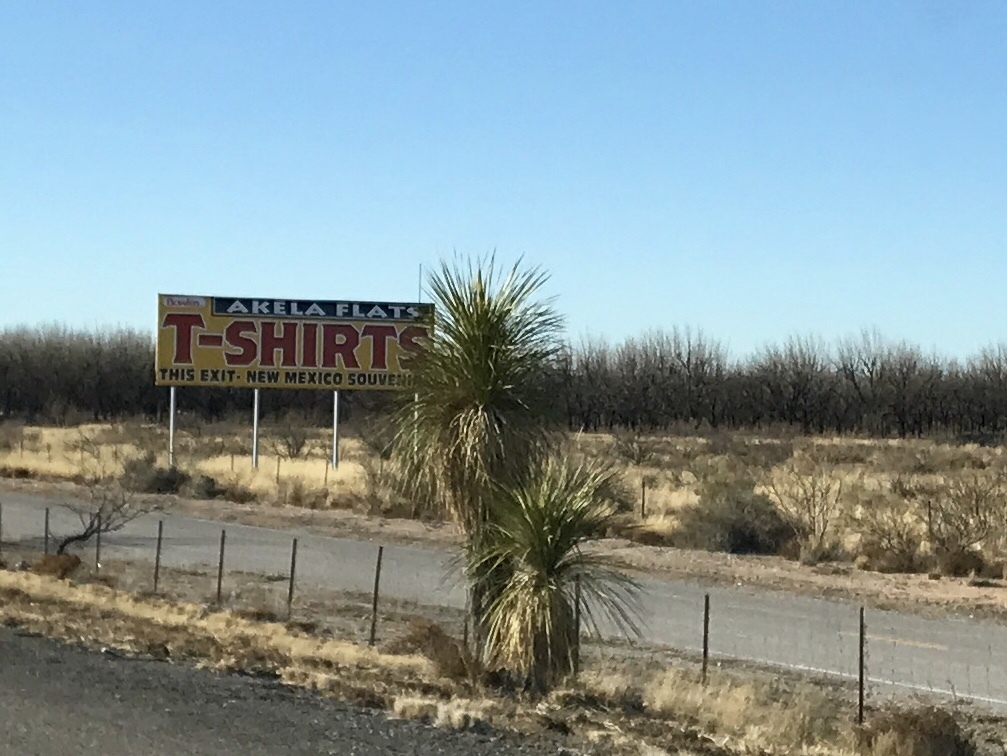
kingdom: Plantae
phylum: Tracheophyta
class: Liliopsida
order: Asparagales
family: Asparagaceae
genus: Yucca
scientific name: Yucca elata
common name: Palmella
